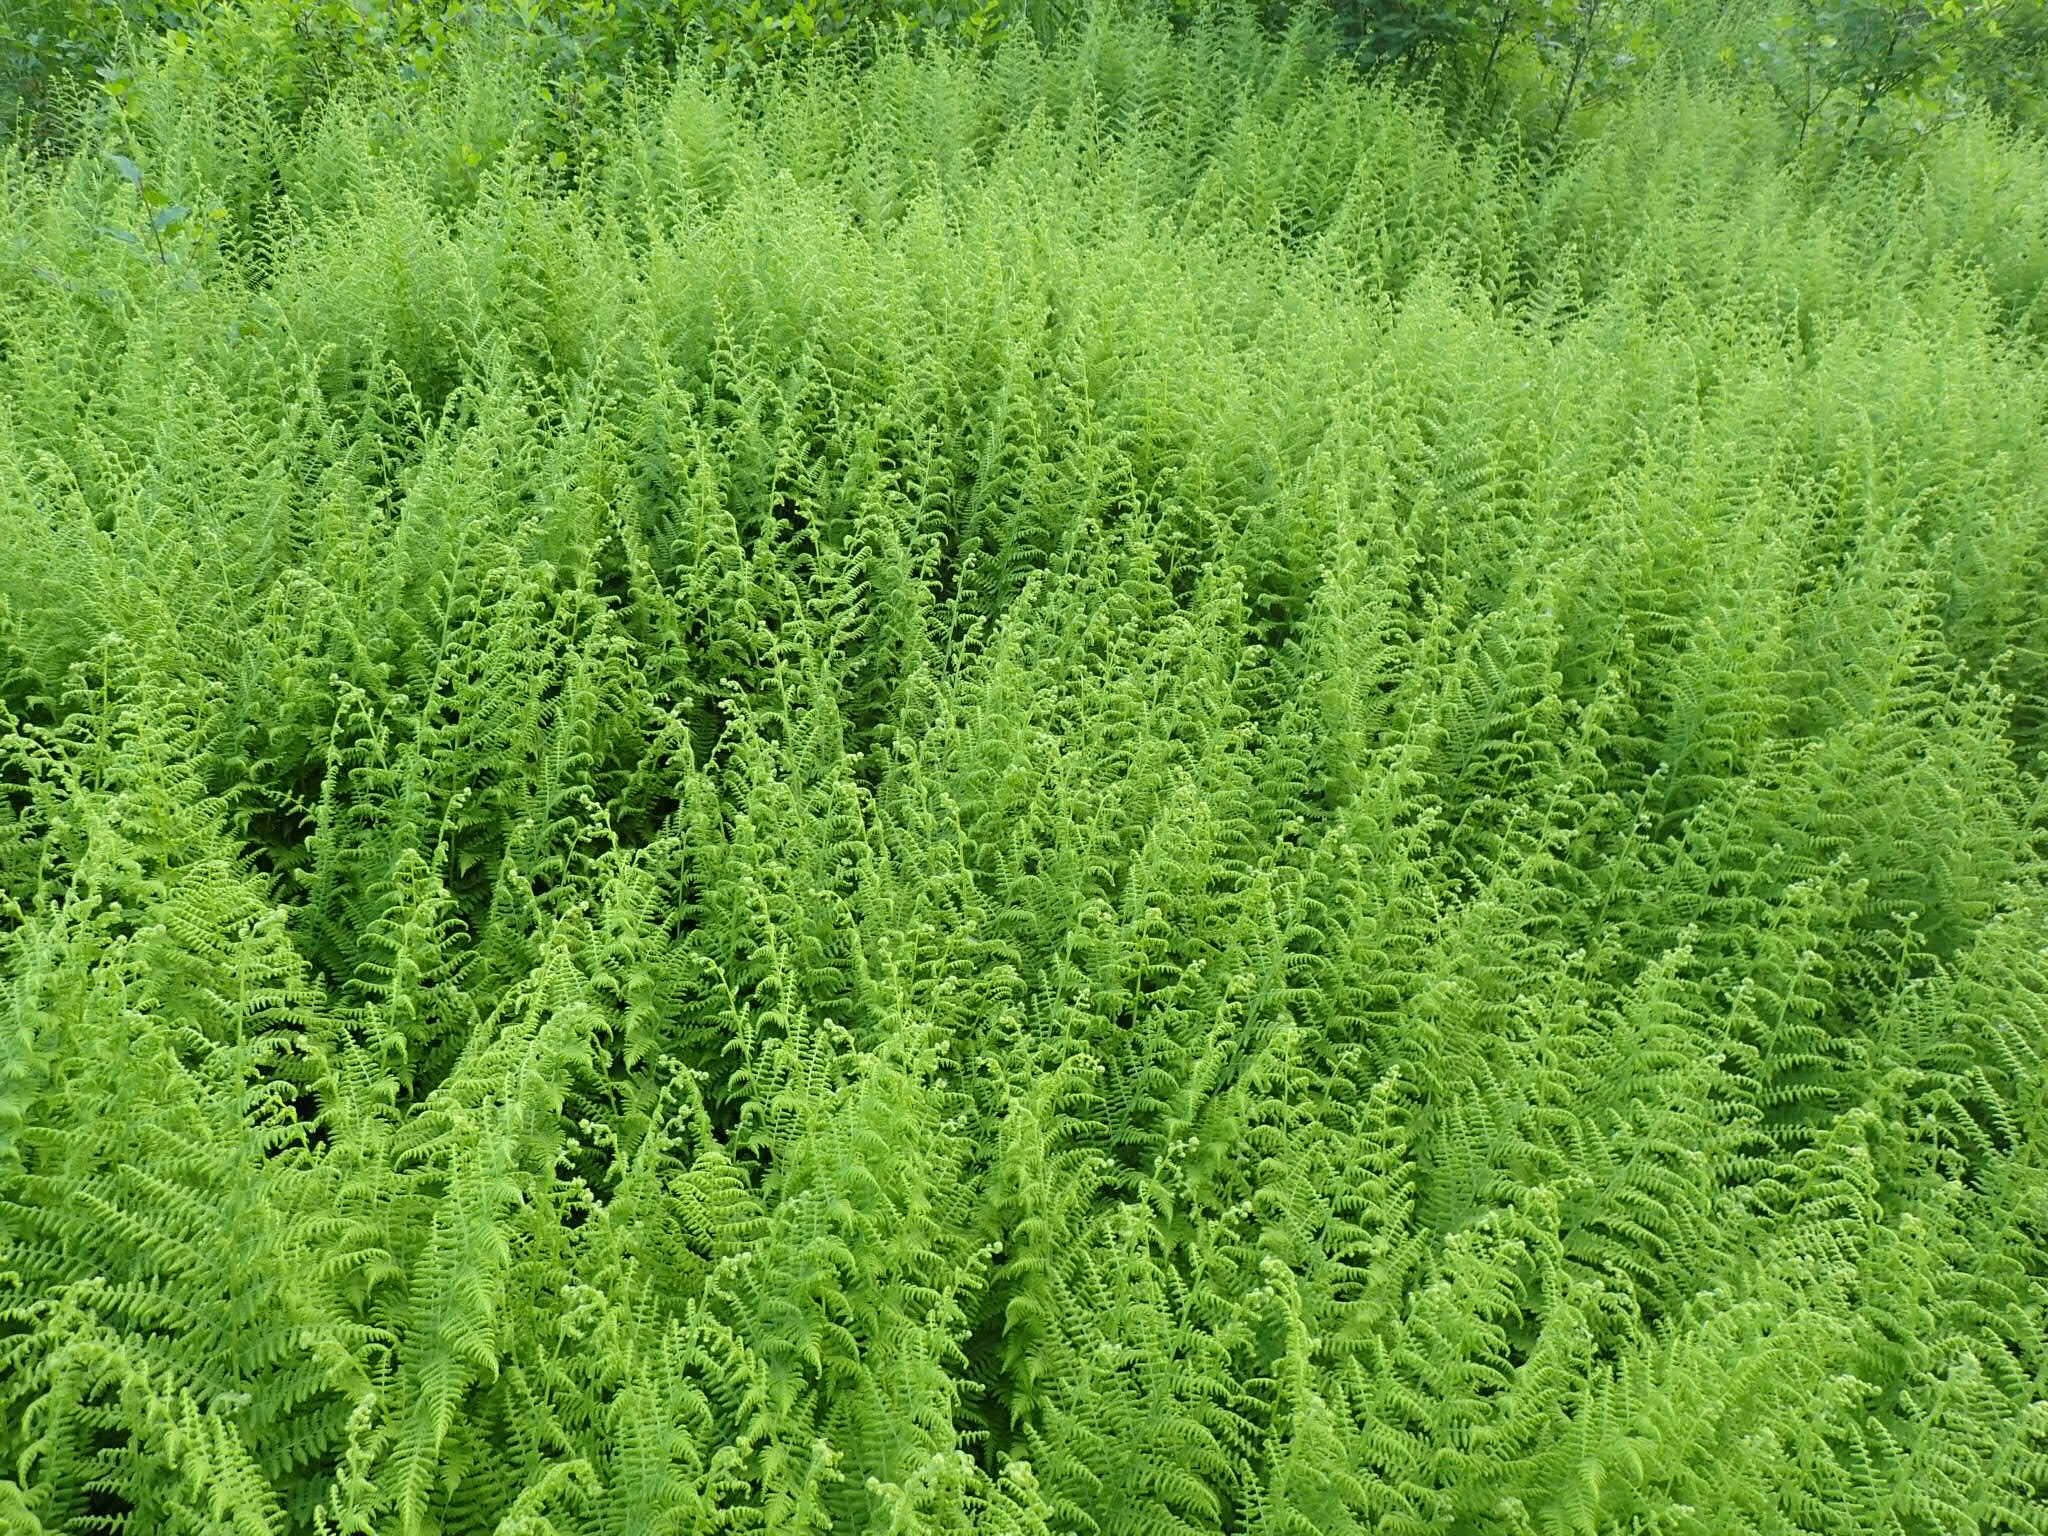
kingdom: Plantae
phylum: Tracheophyta
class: Polypodiopsida
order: Polypodiales
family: Dennstaedtiaceae
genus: Sitobolium
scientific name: Sitobolium punctilobum
